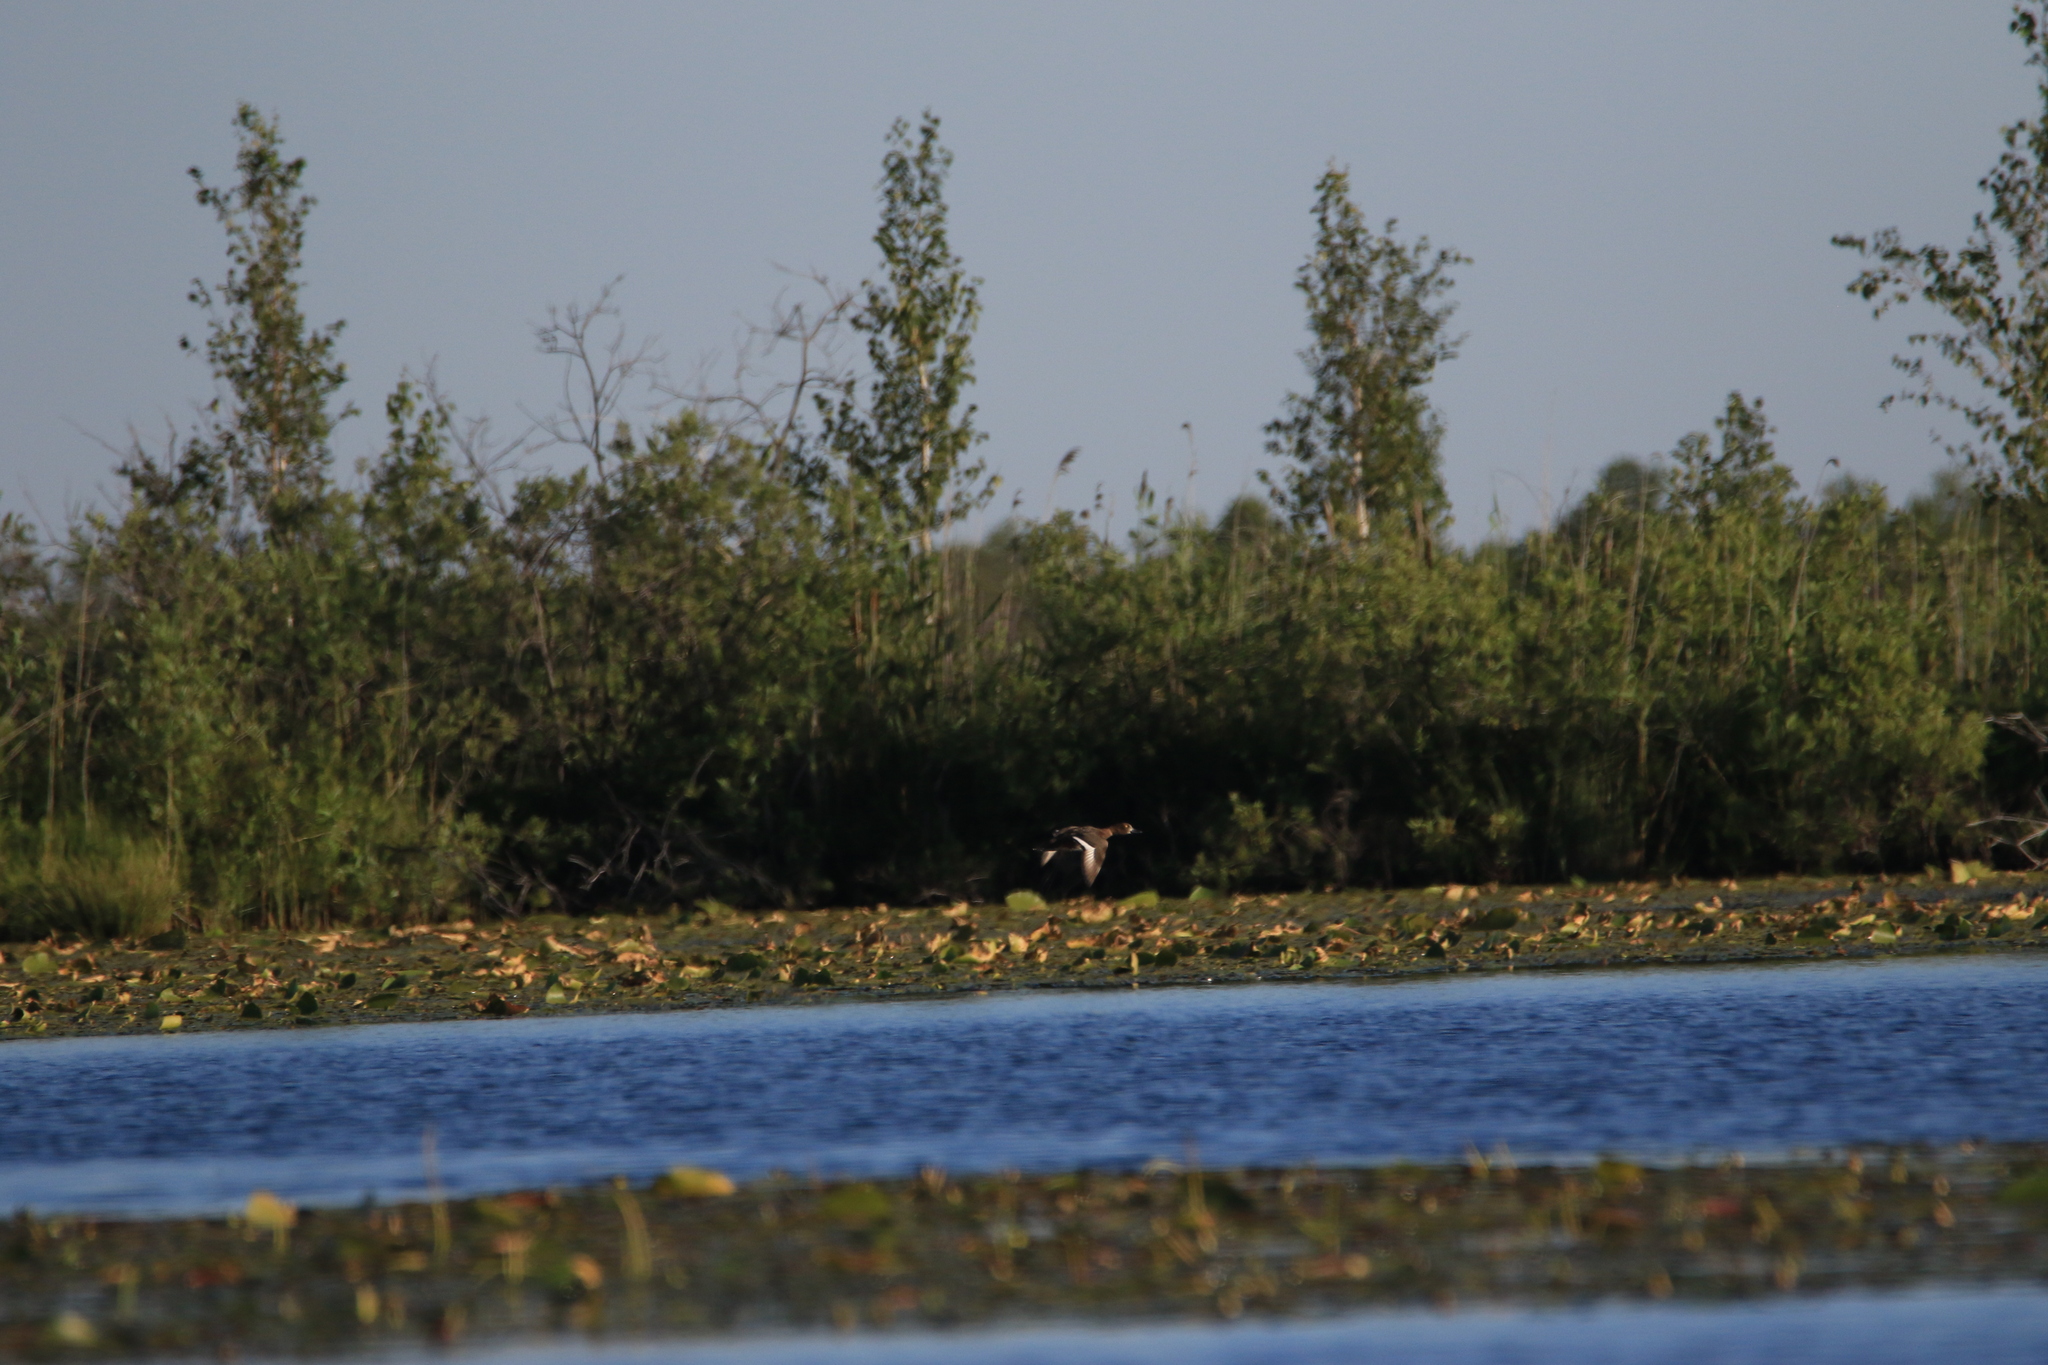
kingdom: Animalia
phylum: Chordata
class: Aves
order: Anseriformes
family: Anatidae
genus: Aythya
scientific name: Aythya fuligula
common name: Tufted duck
